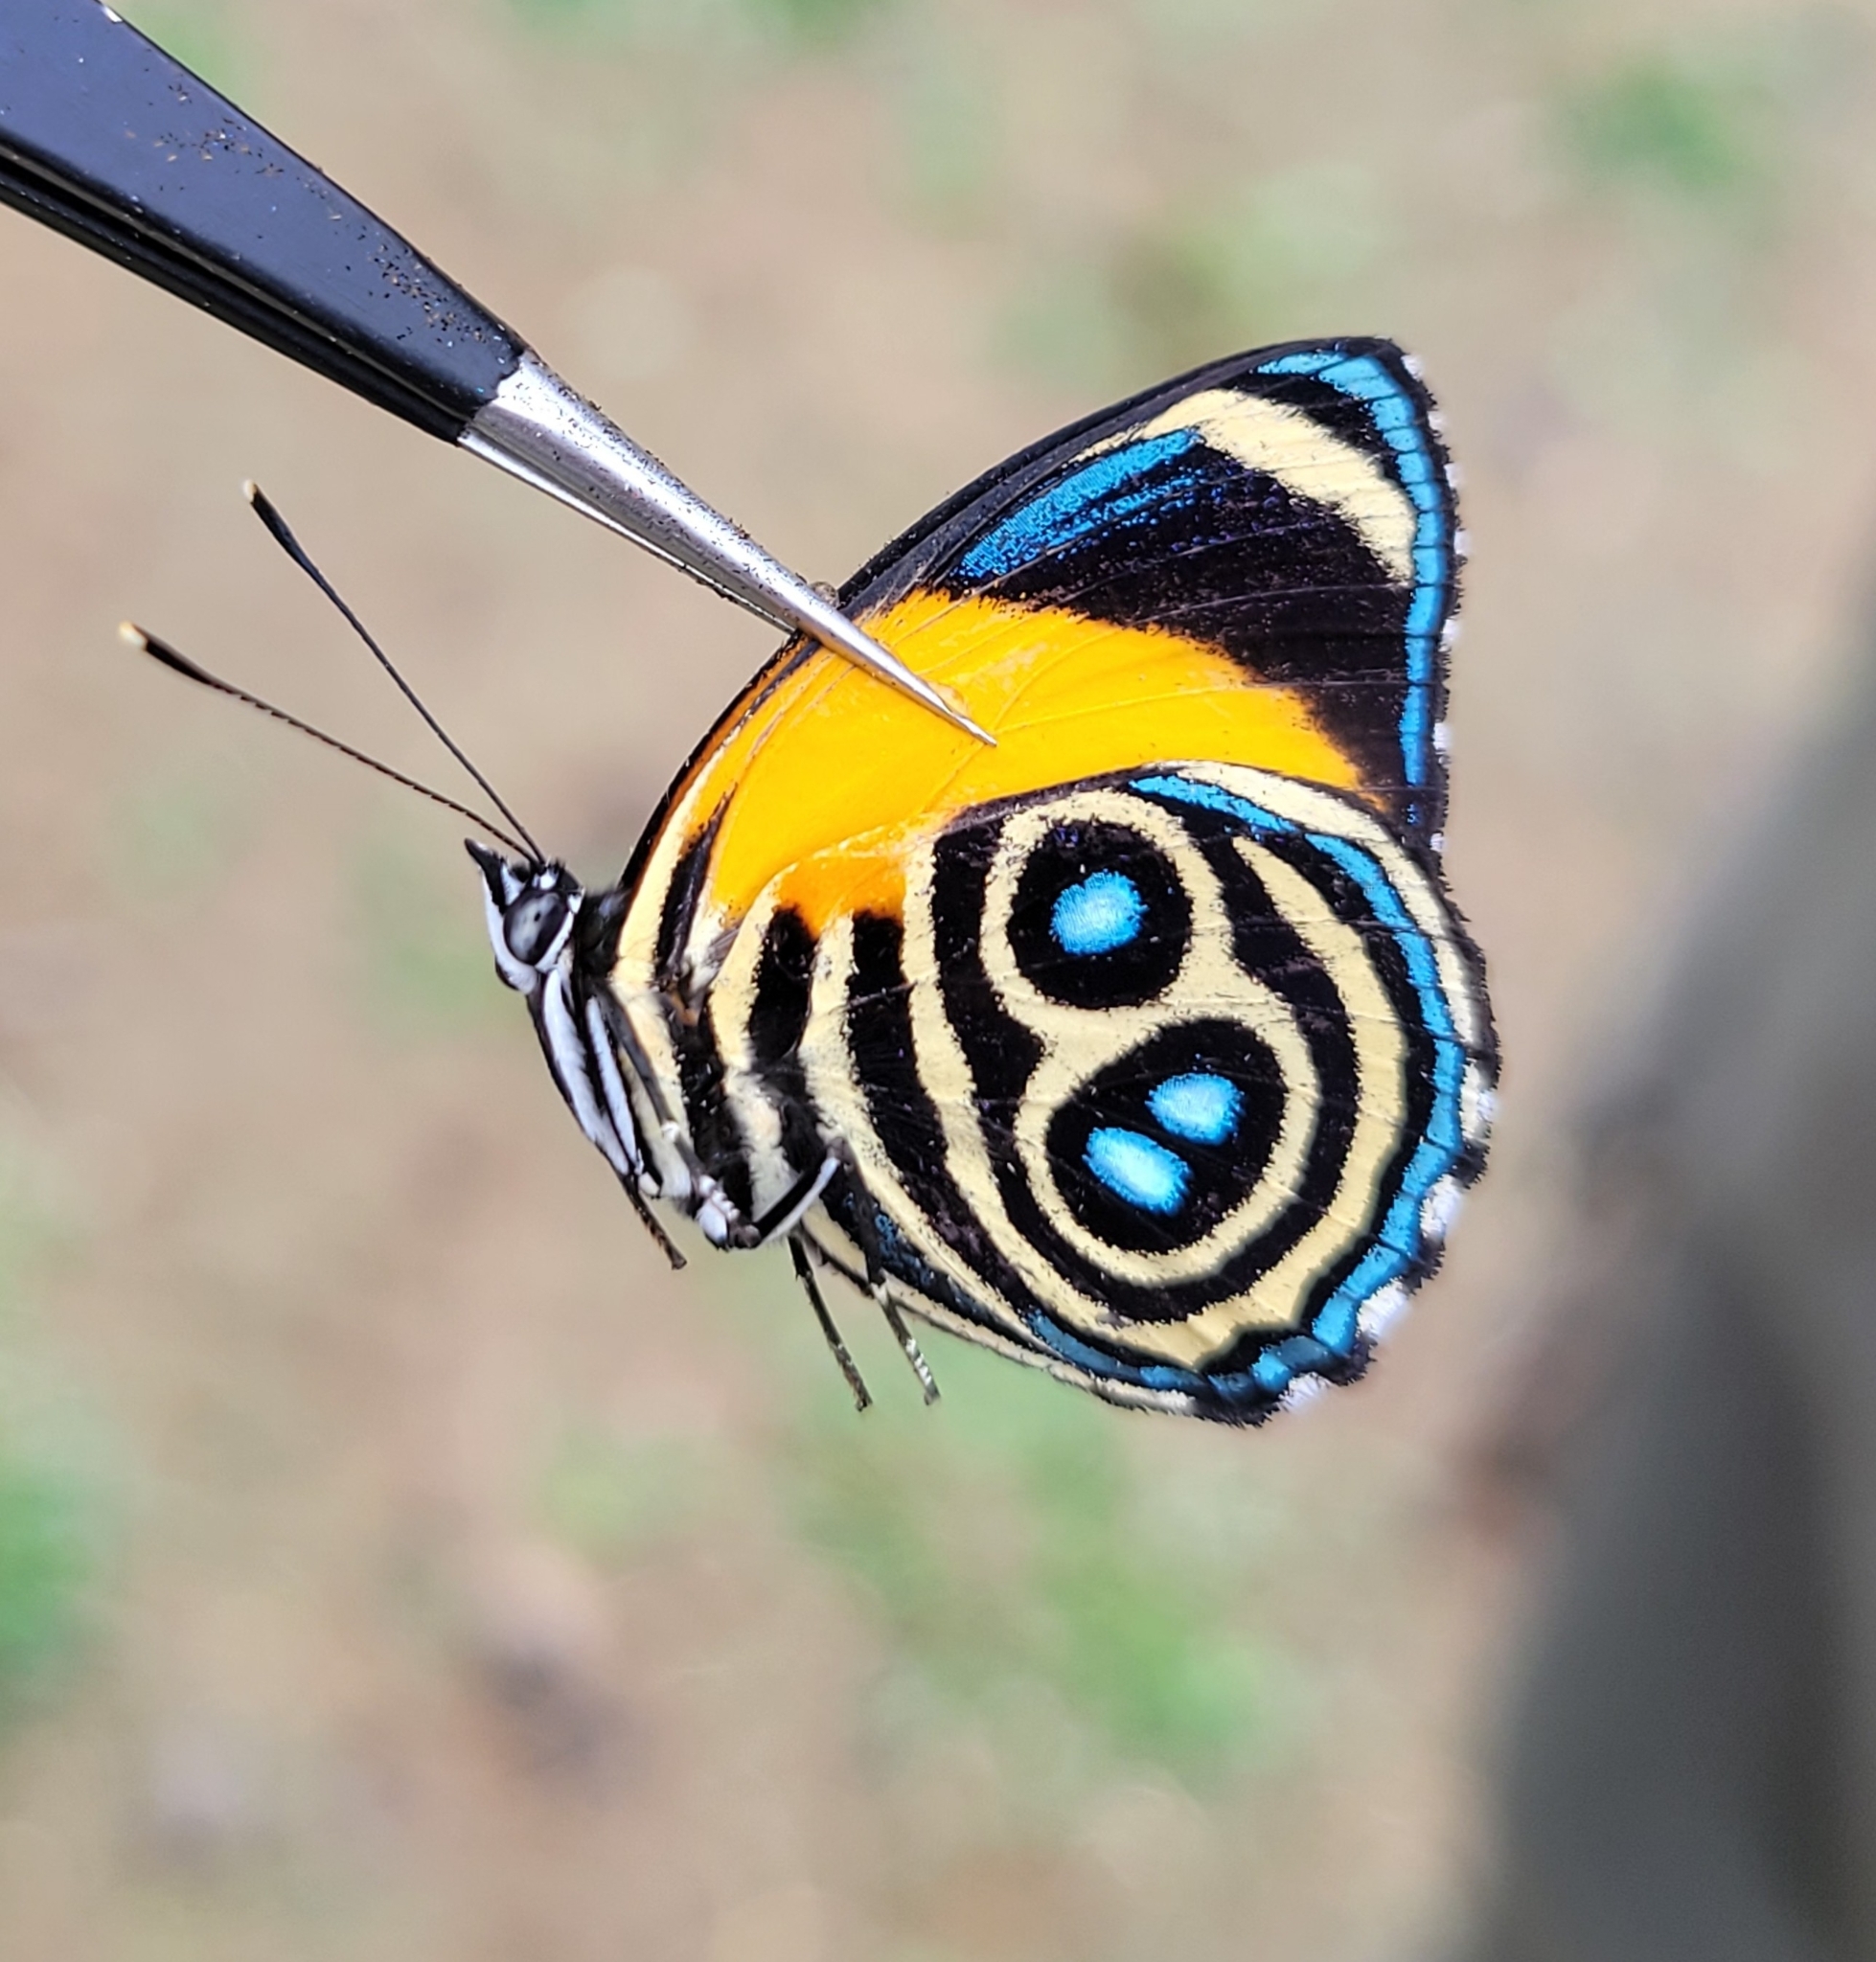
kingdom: Animalia
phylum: Arthropoda
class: Insecta
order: Lepidoptera
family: Nymphalidae
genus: Catagramma
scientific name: Catagramma eunomia
